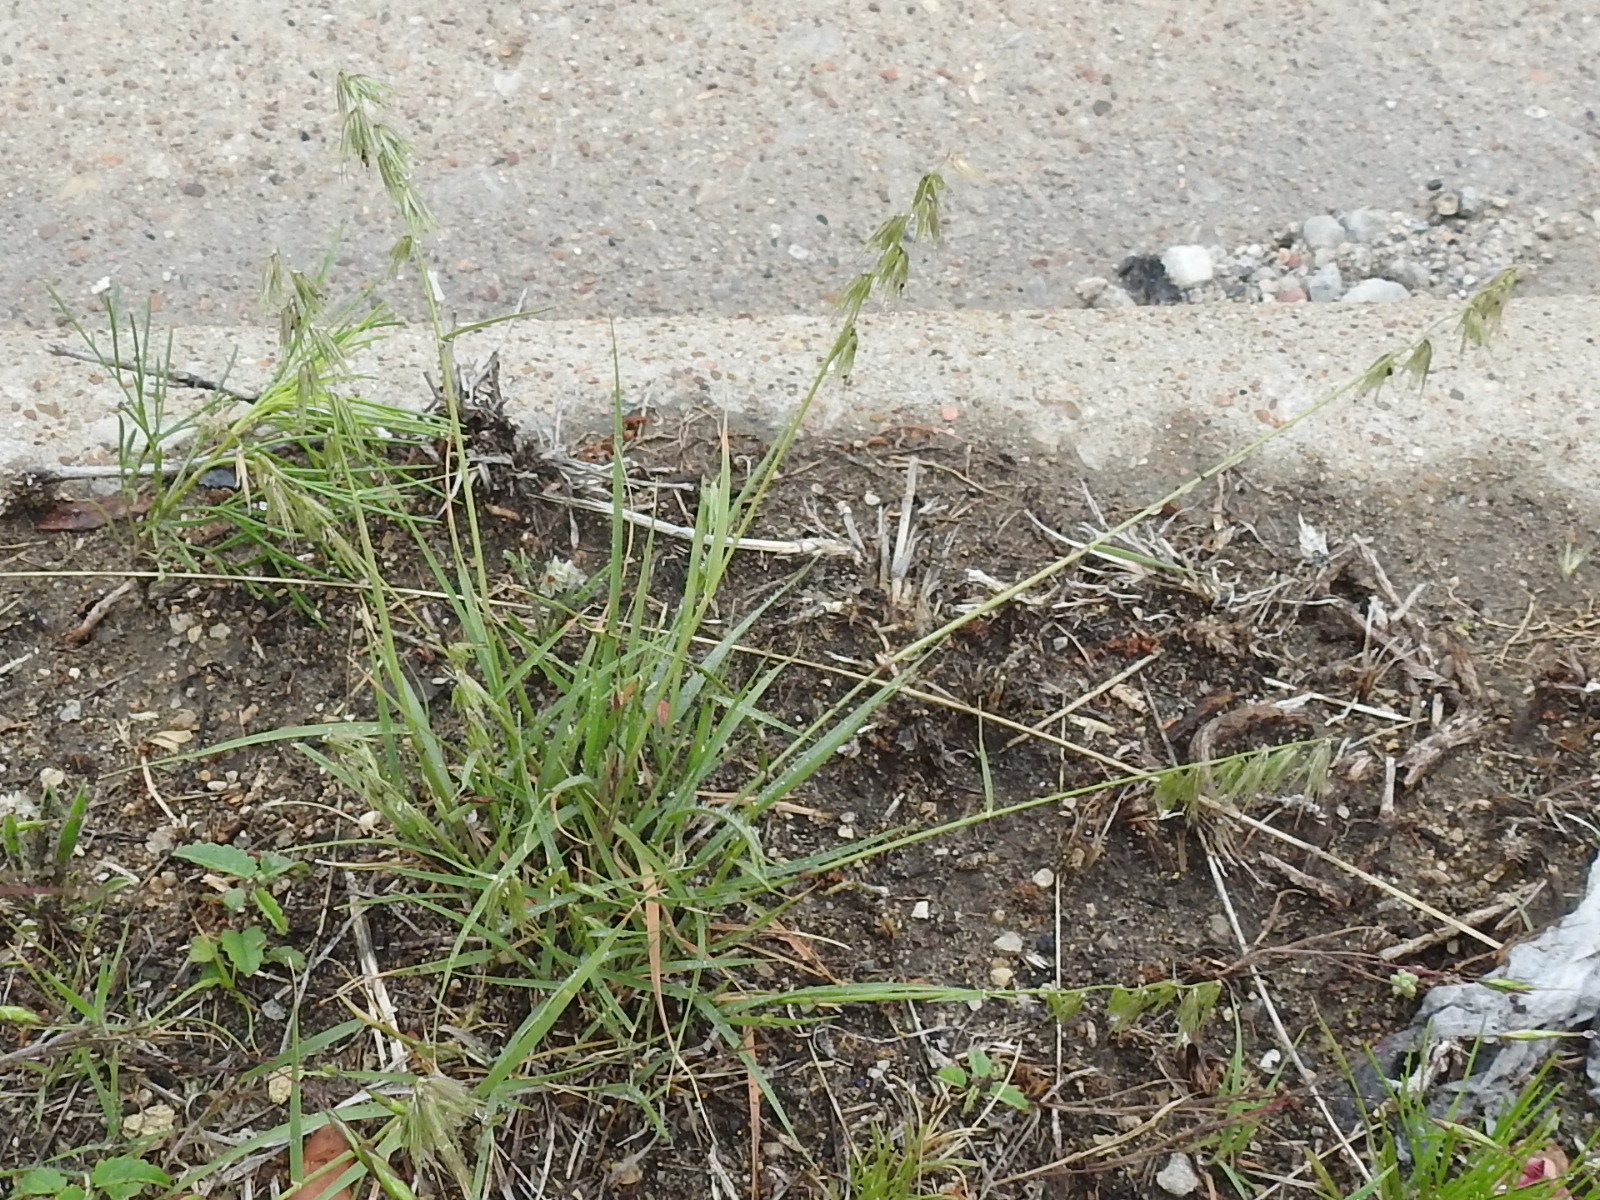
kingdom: Plantae
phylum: Tracheophyta
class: Liliopsida
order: Poales
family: Poaceae
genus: Bouteloua
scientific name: Bouteloua rigidiseta
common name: Texas grama
